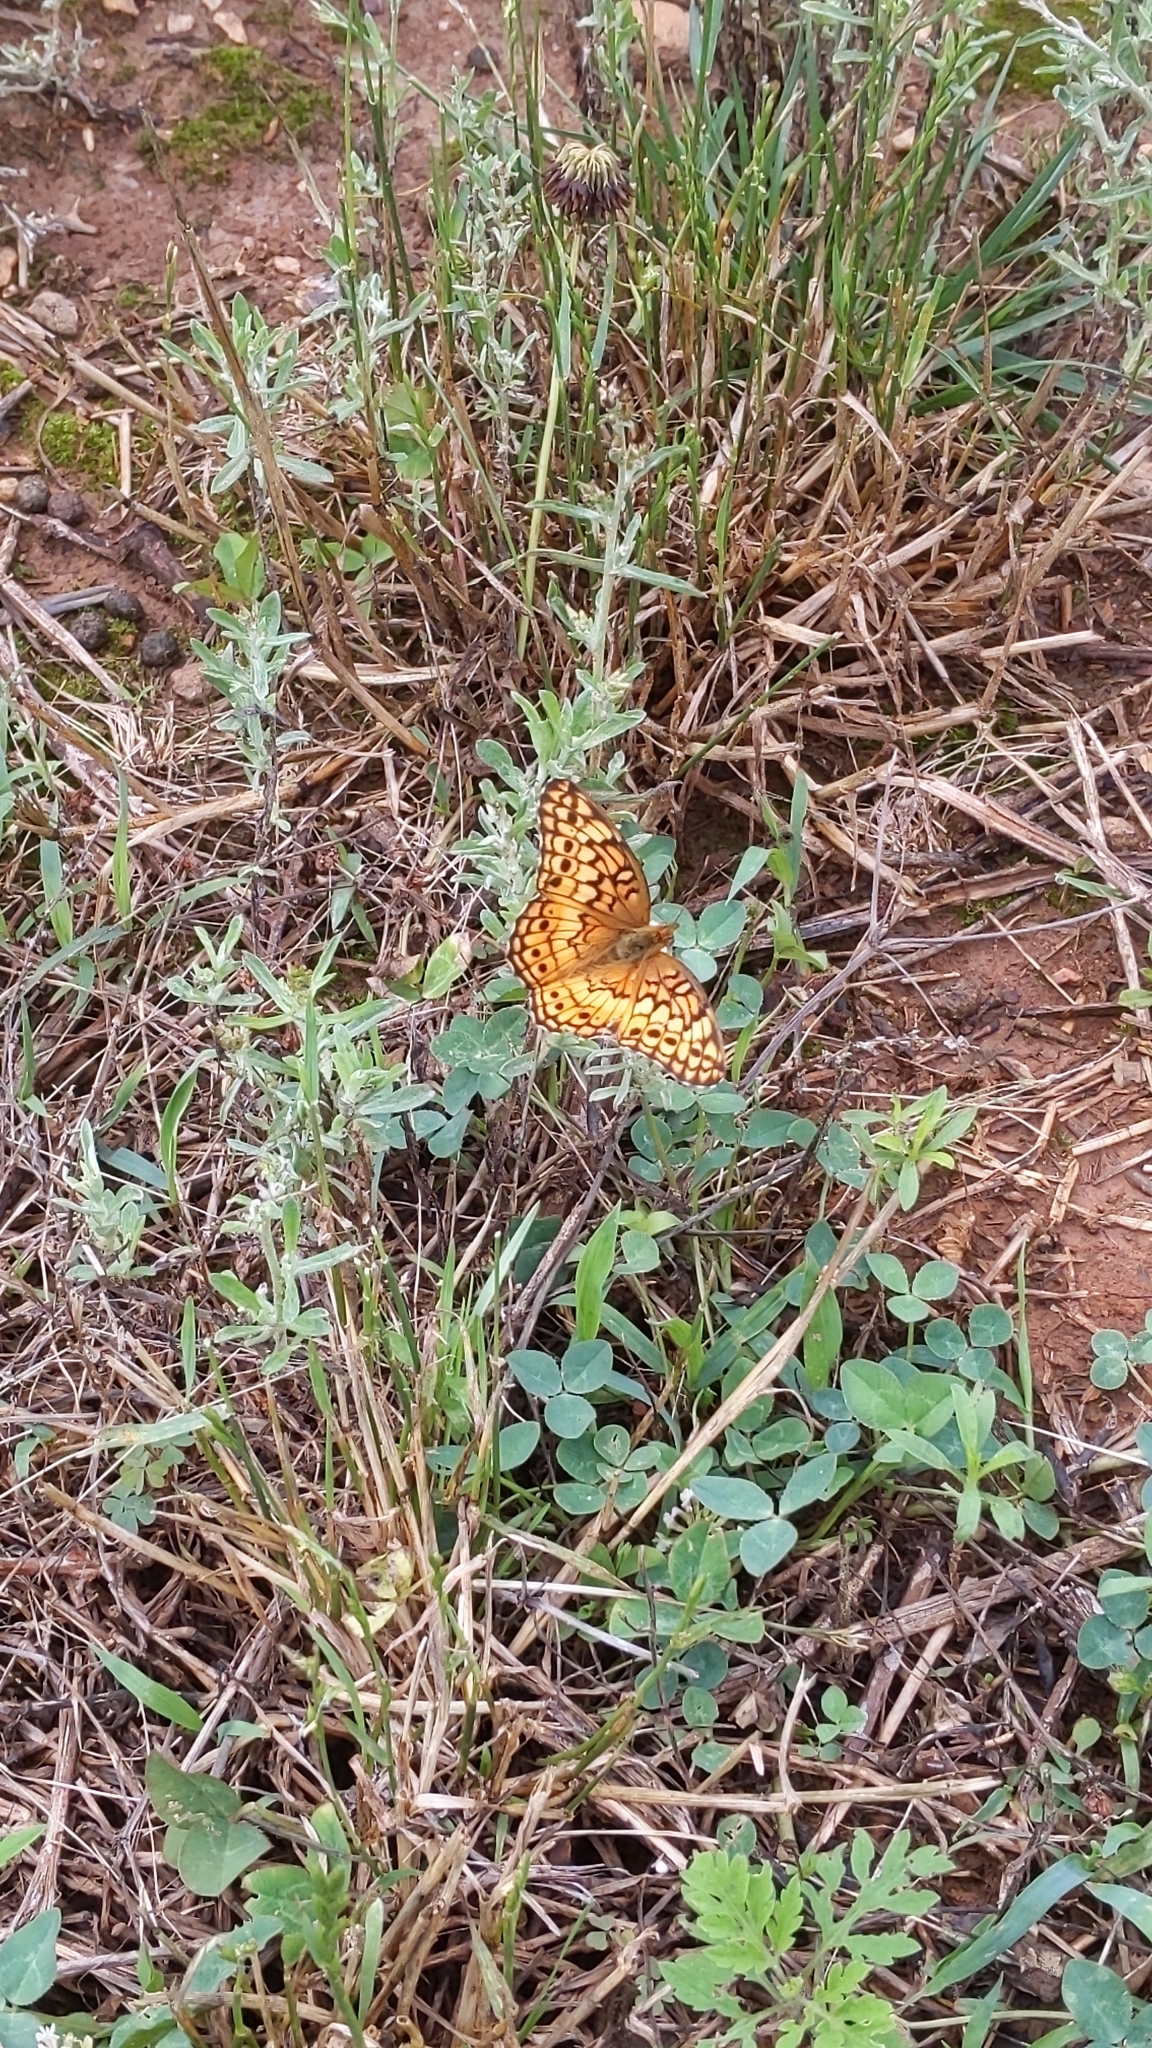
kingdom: Animalia
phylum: Arthropoda
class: Insecta
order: Lepidoptera
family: Nymphalidae
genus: Euptoieta
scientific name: Euptoieta claudia
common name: Variegated fritillary
